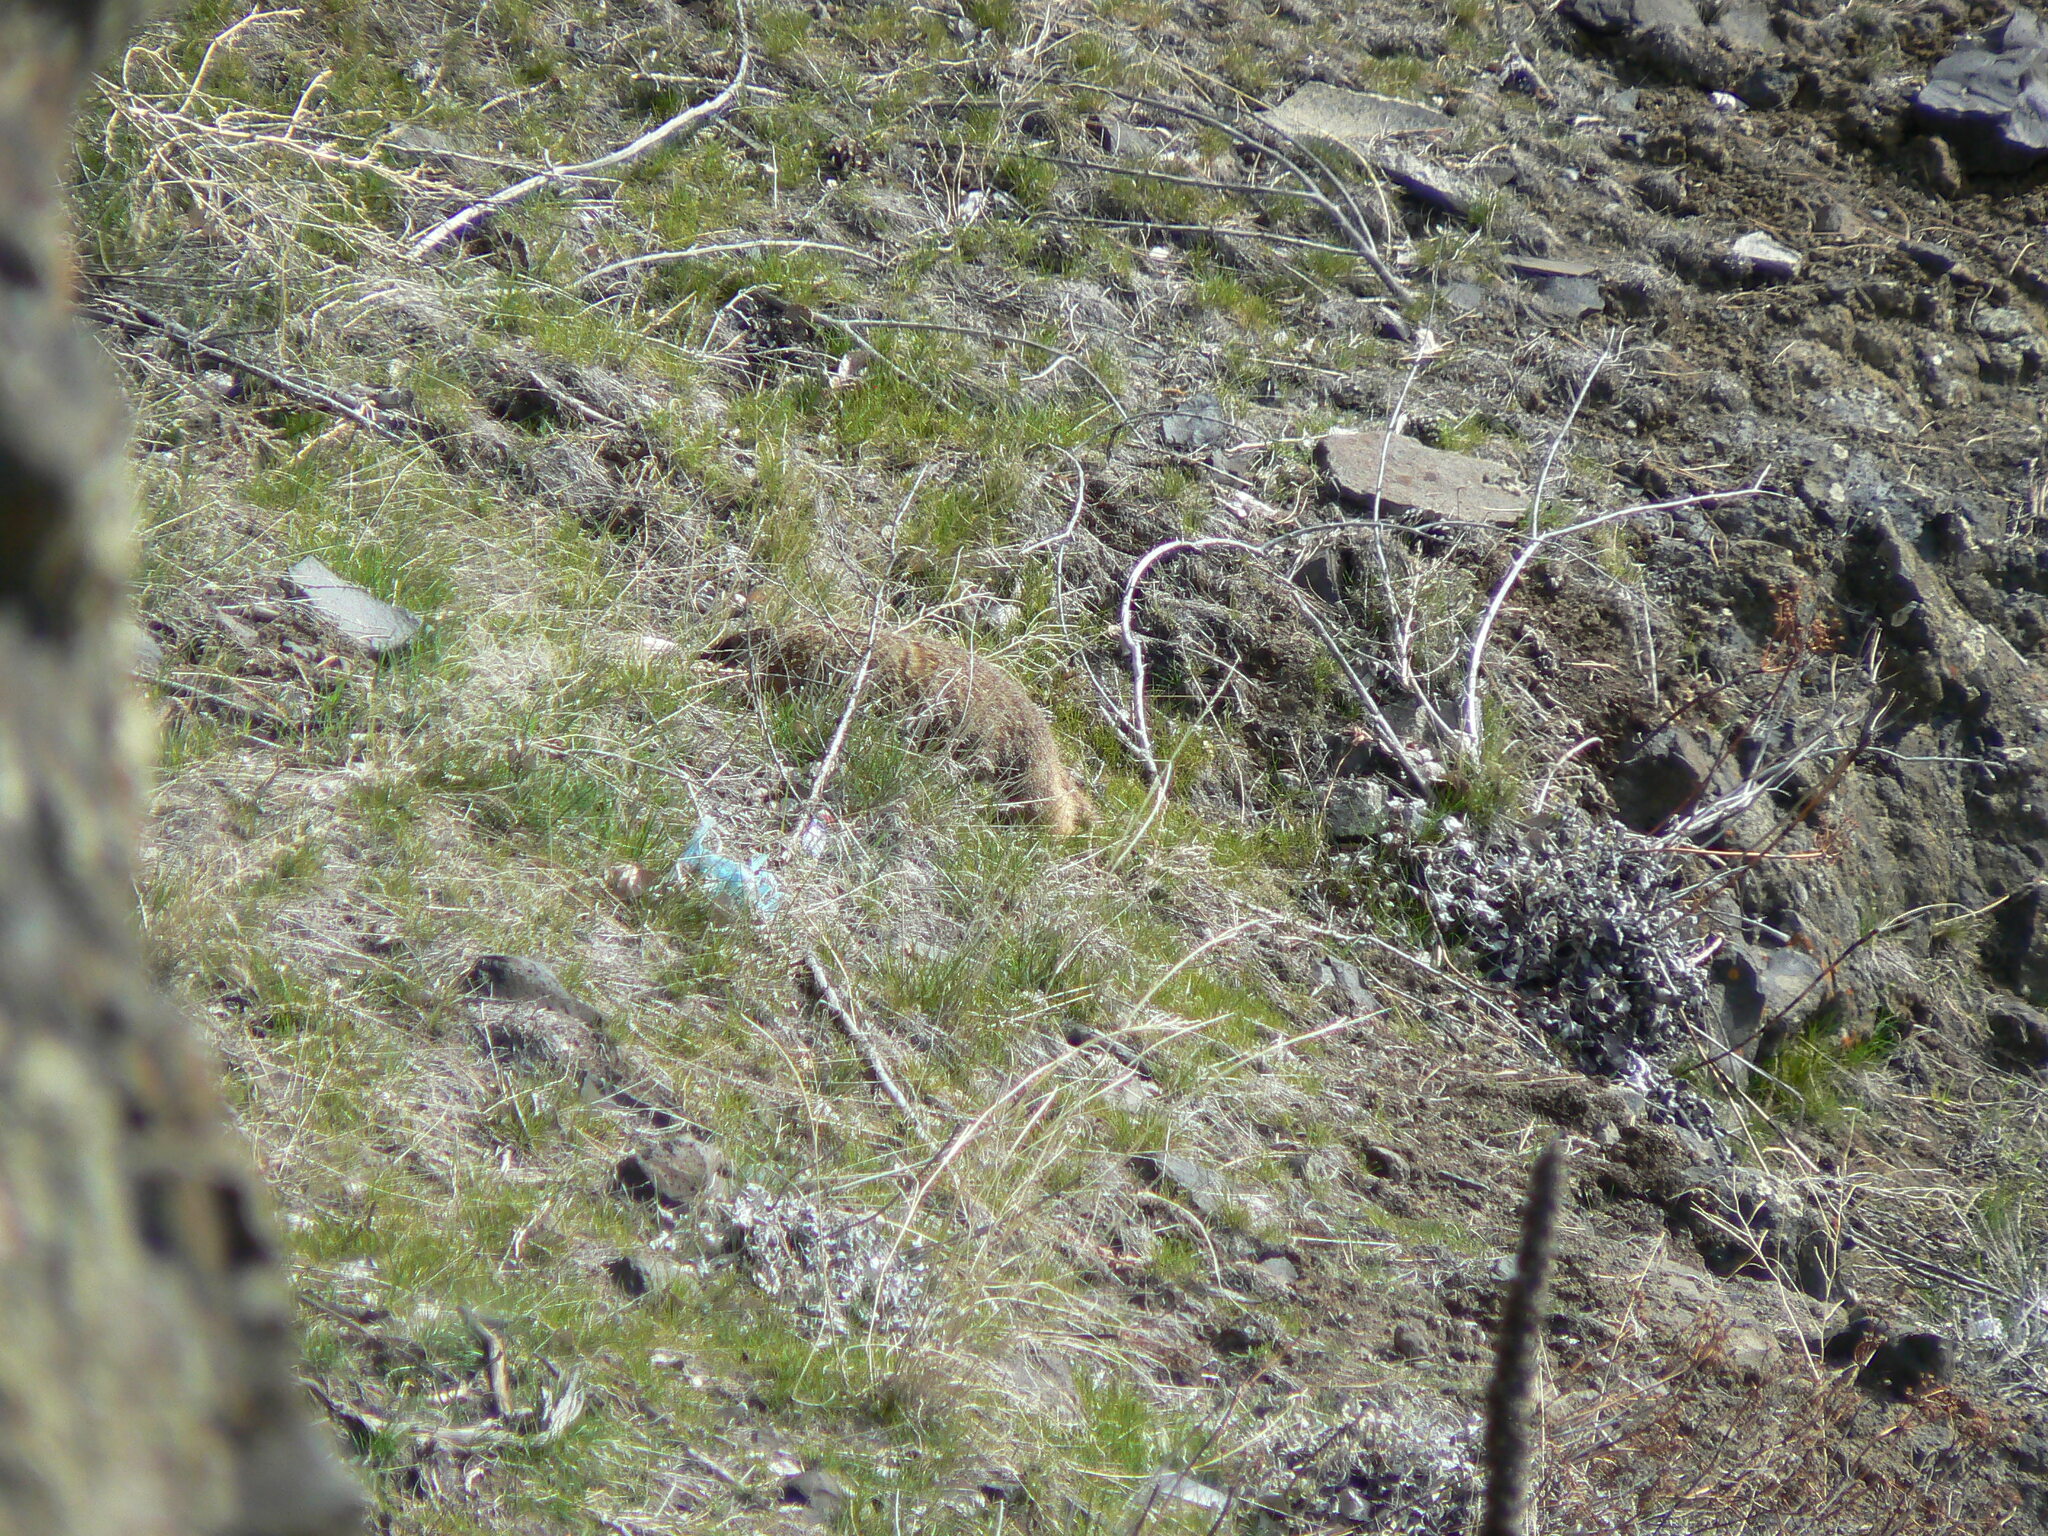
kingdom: Animalia
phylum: Chordata
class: Mammalia
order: Rodentia
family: Sciuridae
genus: Marmota
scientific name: Marmota flaviventris
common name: Yellow-bellied marmot
